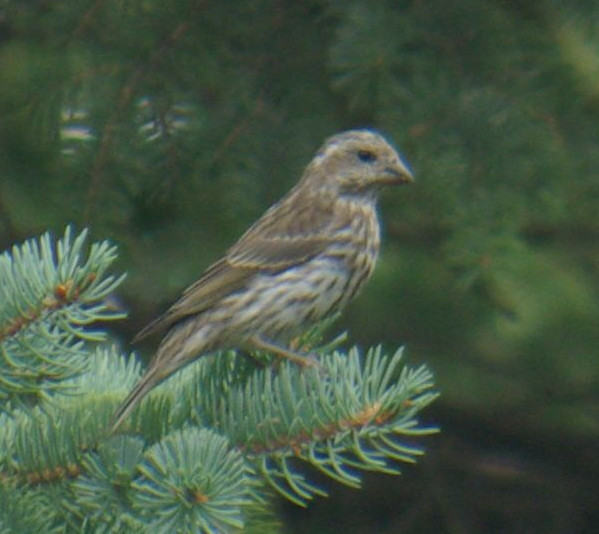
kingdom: Animalia
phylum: Chordata
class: Aves
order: Passeriformes
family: Fringillidae
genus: Haemorhous
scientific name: Haemorhous purpureus
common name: Purple finch
